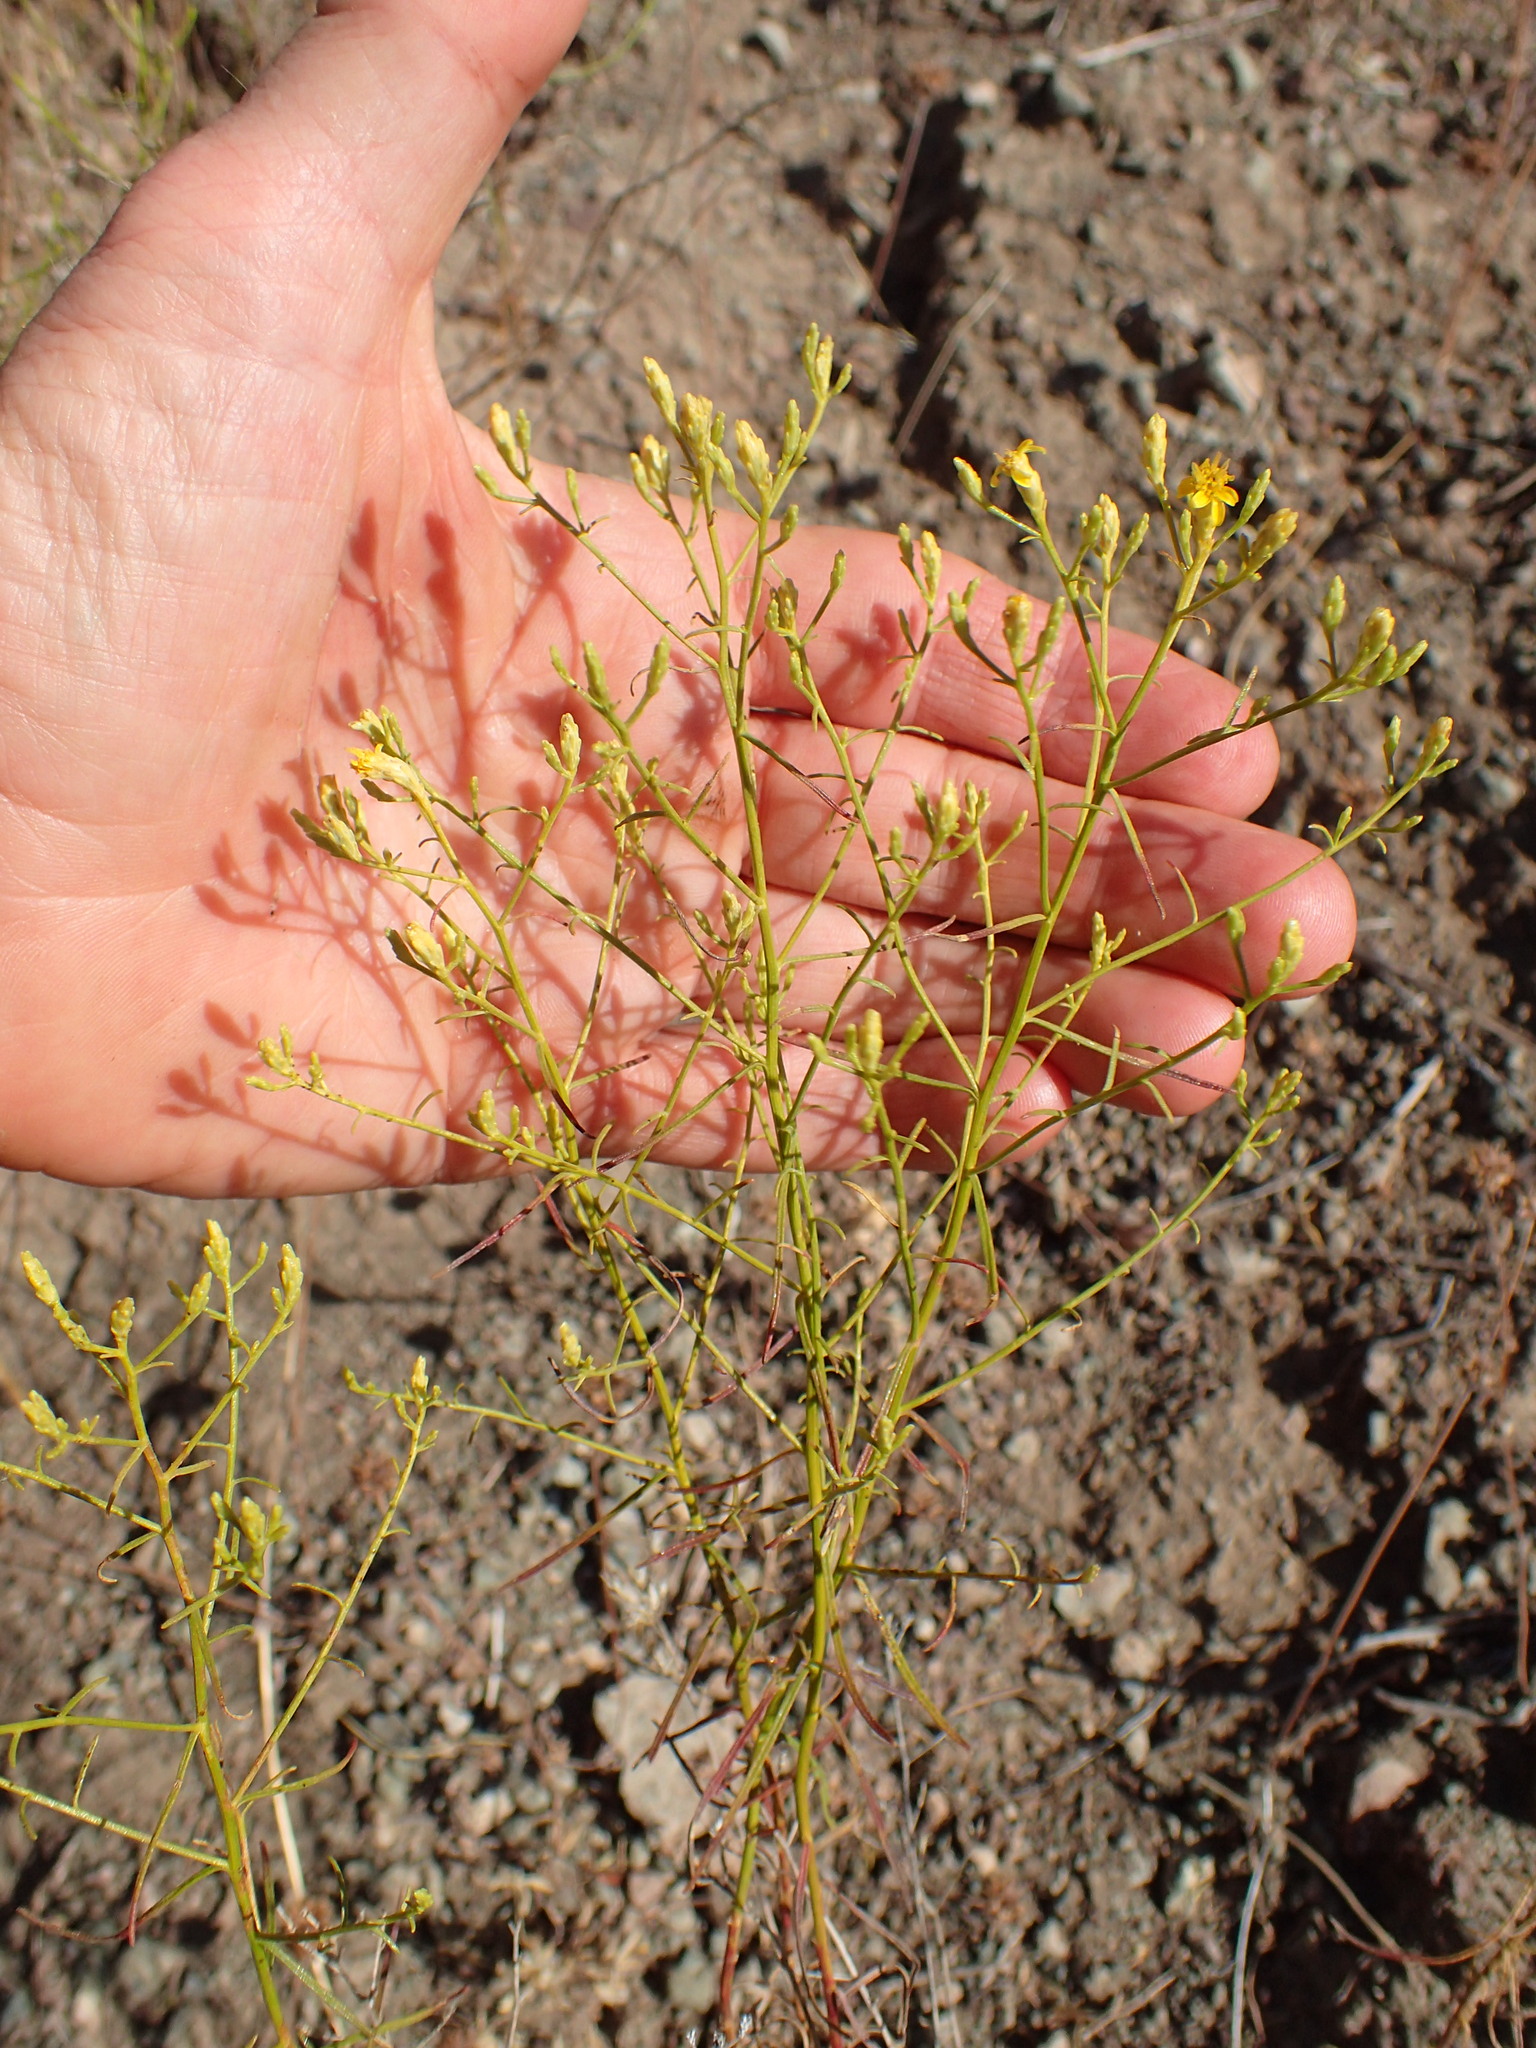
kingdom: Plantae
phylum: Tracheophyta
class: Magnoliopsida
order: Asterales
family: Asteraceae
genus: Gutierrezia
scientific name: Gutierrezia californica
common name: California matchweed
